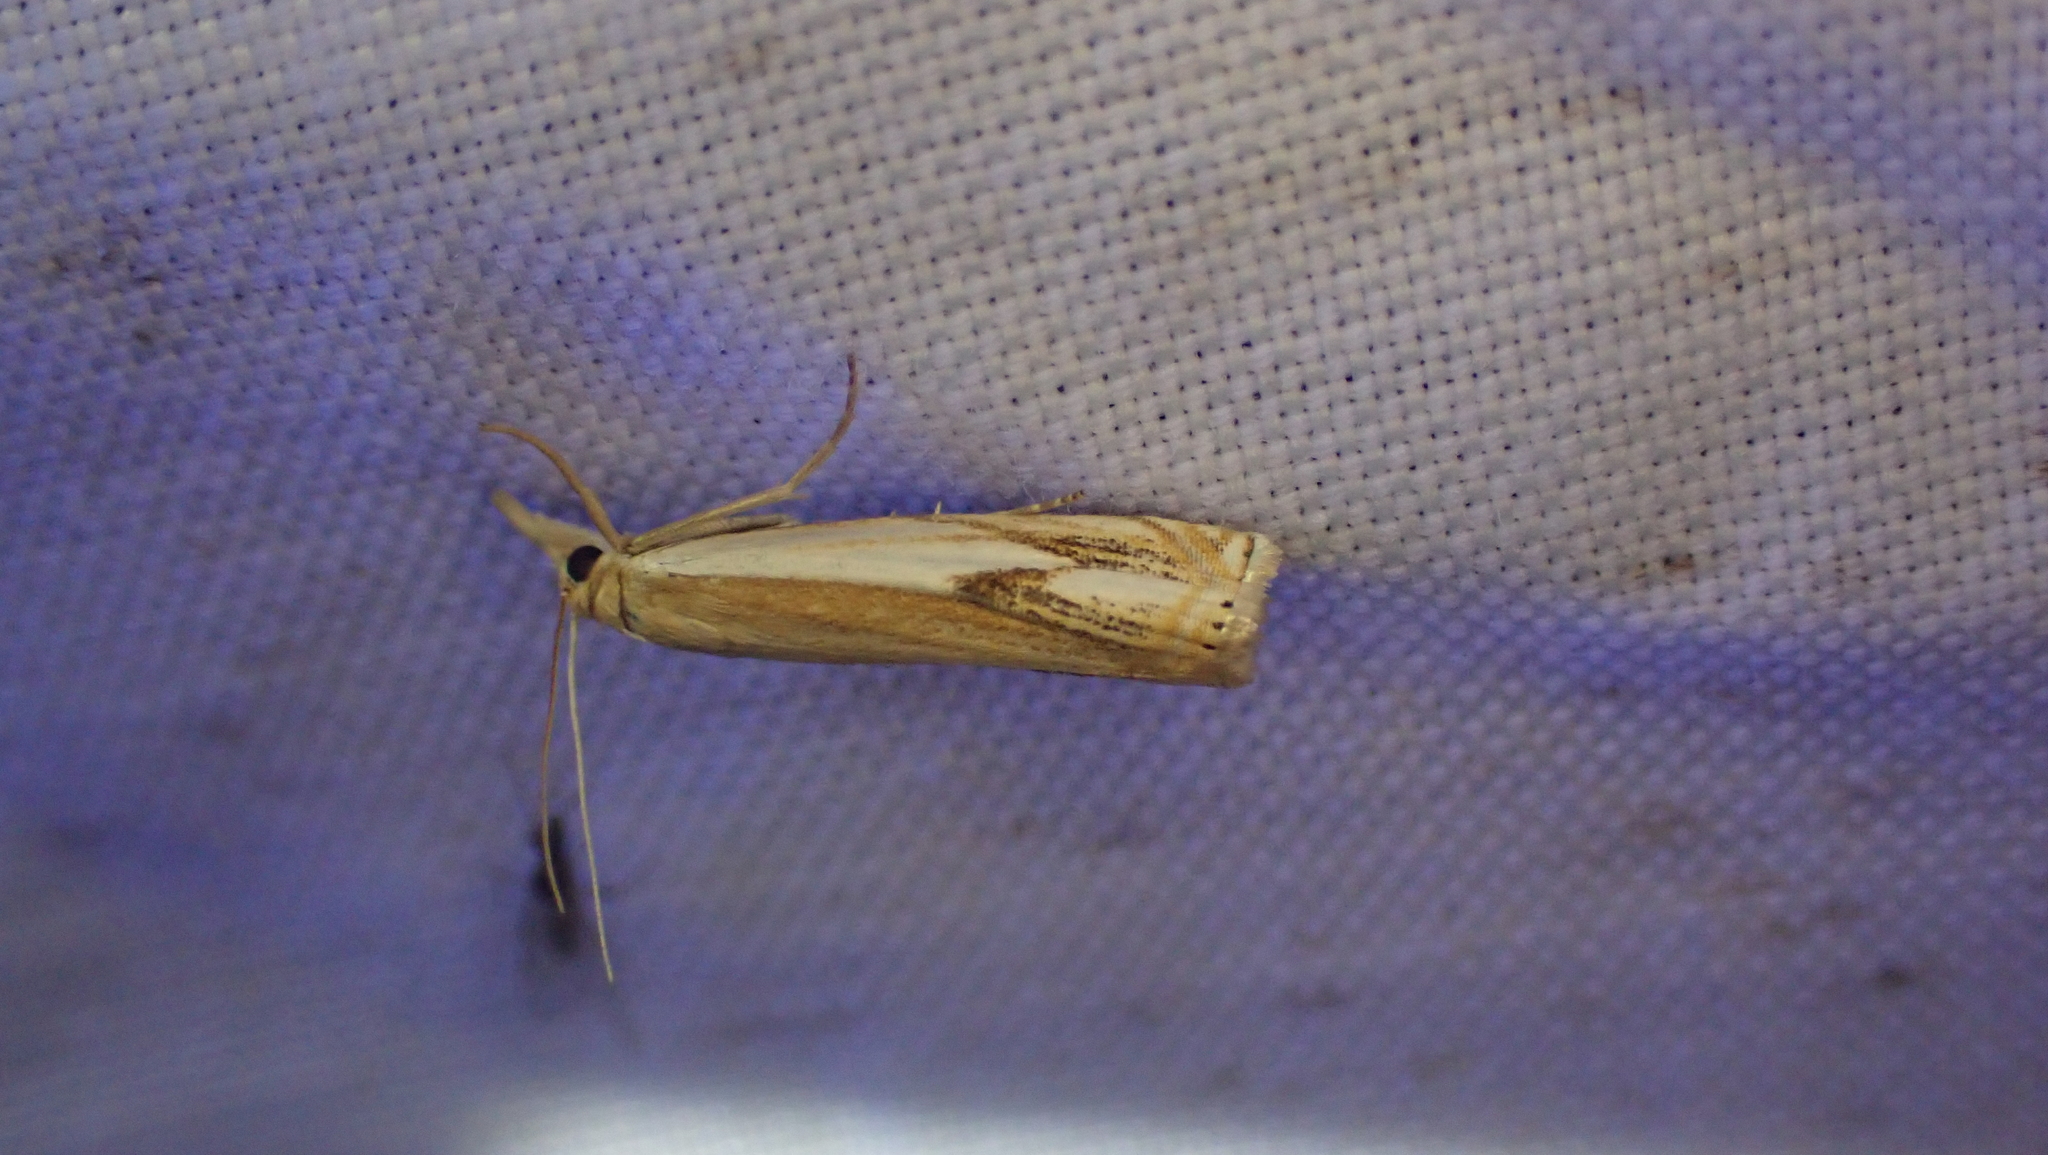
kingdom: Animalia
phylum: Arthropoda
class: Insecta
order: Lepidoptera
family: Crambidae
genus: Crambus
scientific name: Crambus agitatellus
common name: Double-banded grass-veneer
